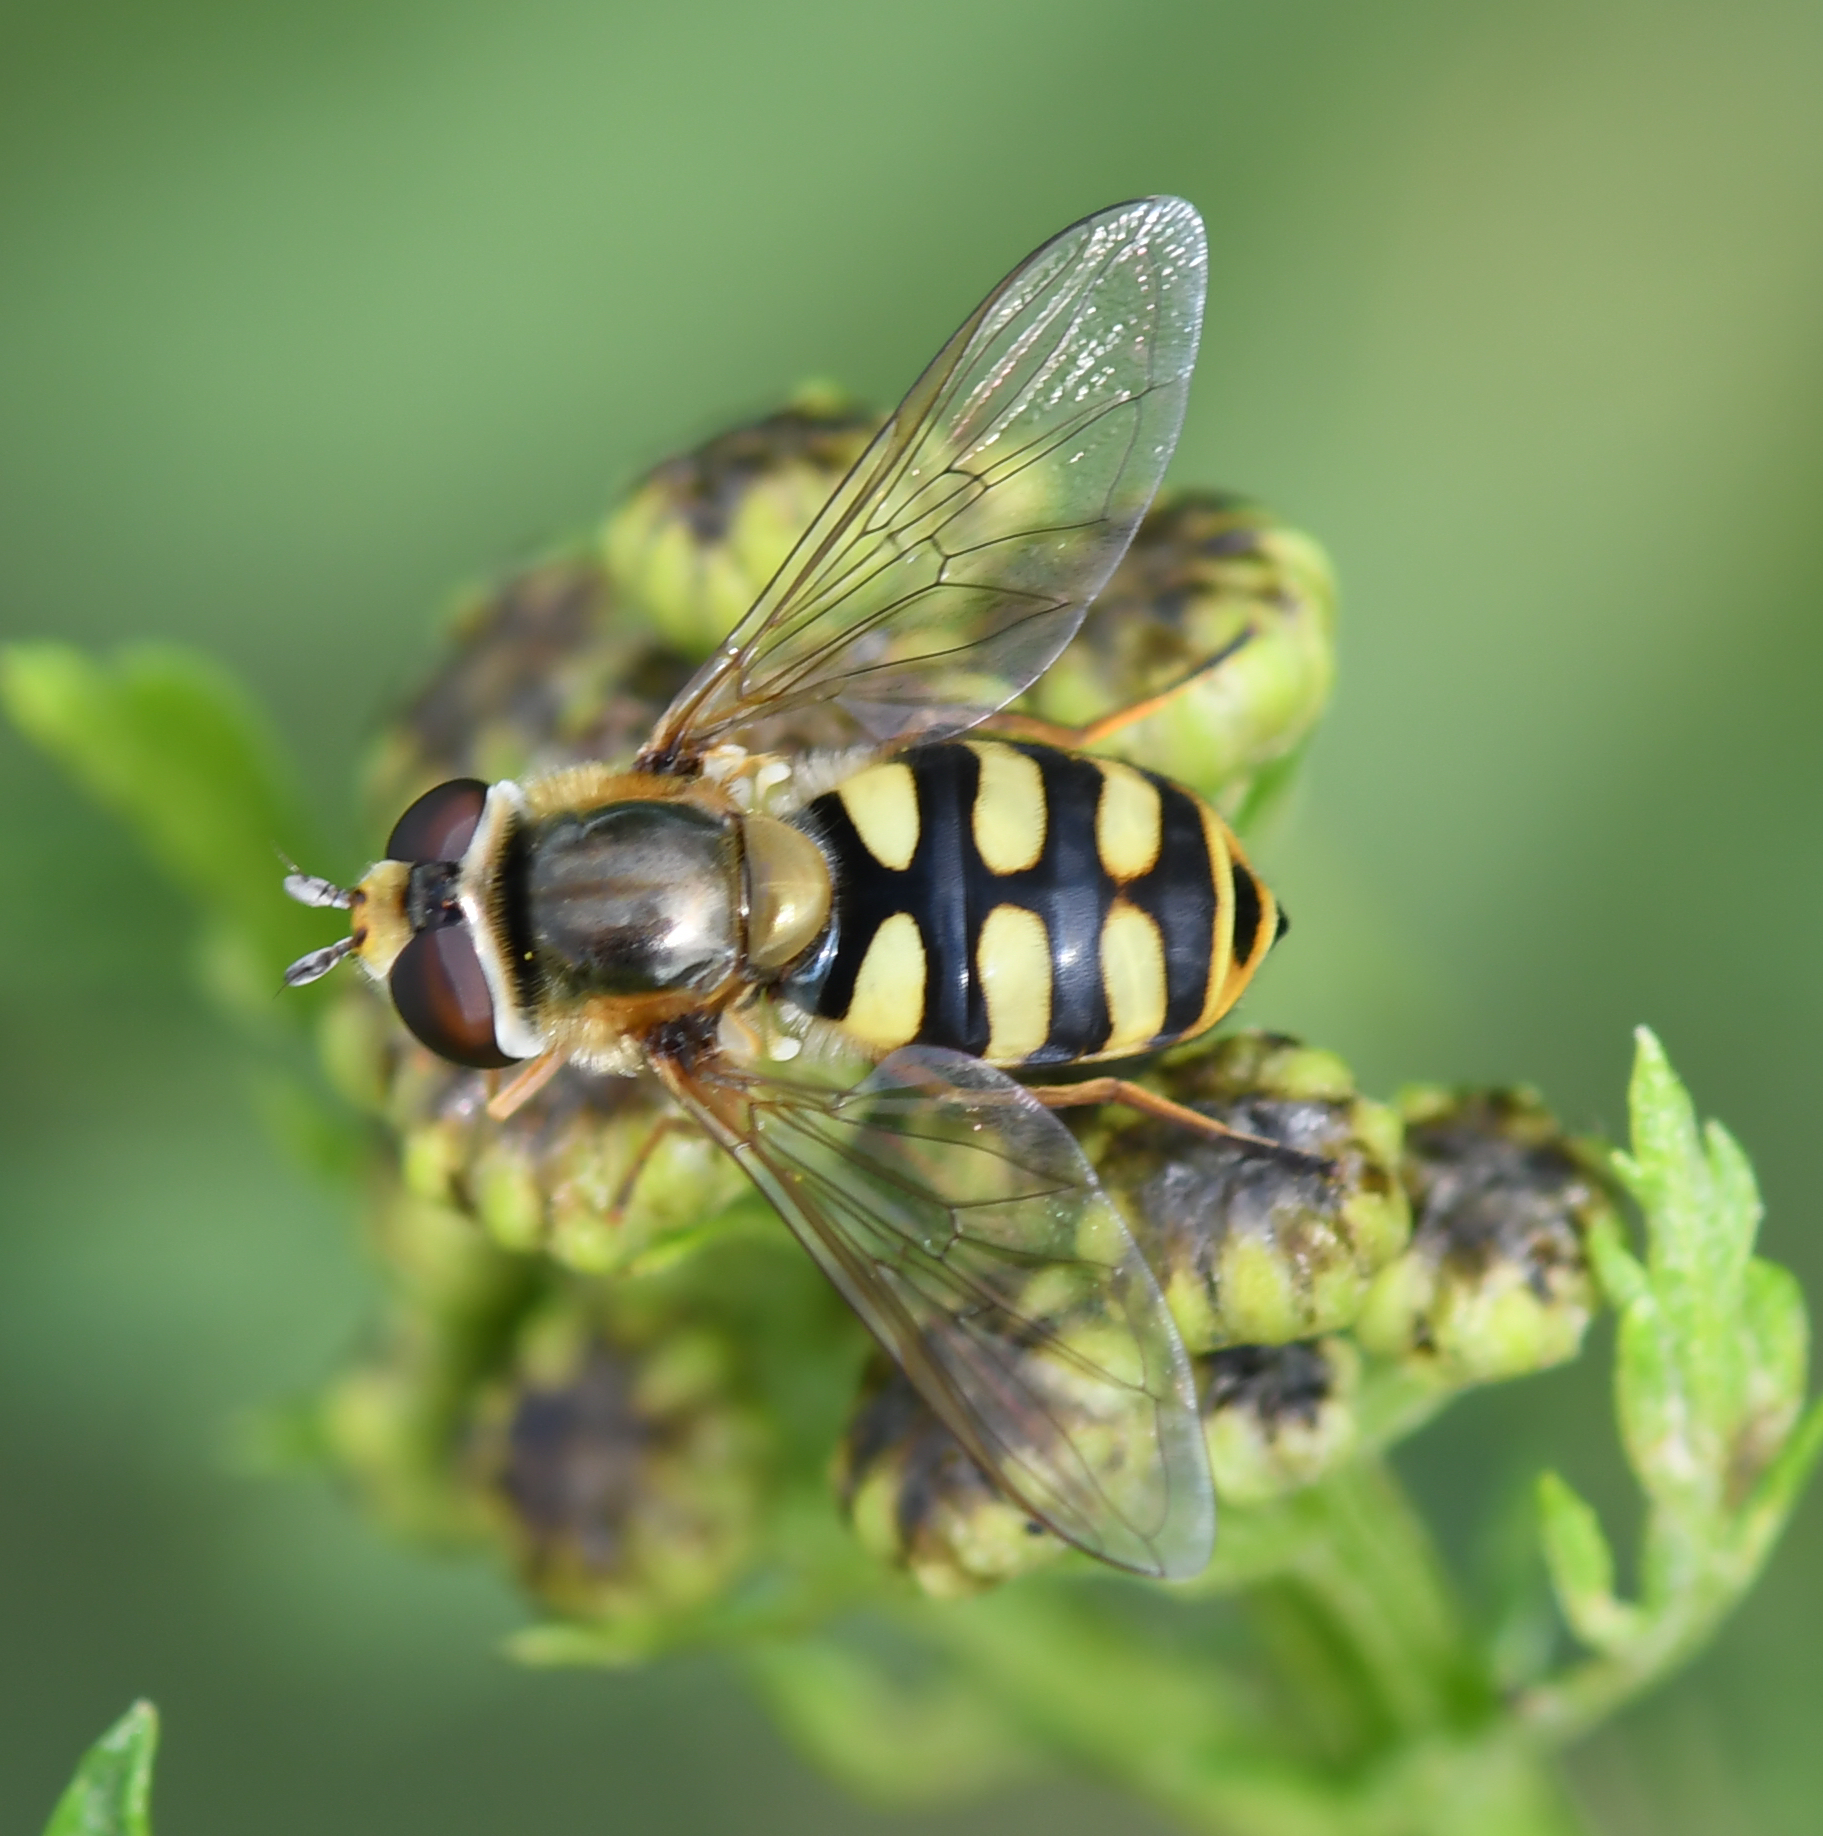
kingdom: Animalia
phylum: Arthropoda
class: Insecta
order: Diptera
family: Syrphidae
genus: Eupeodes
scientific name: Eupeodes corollae
